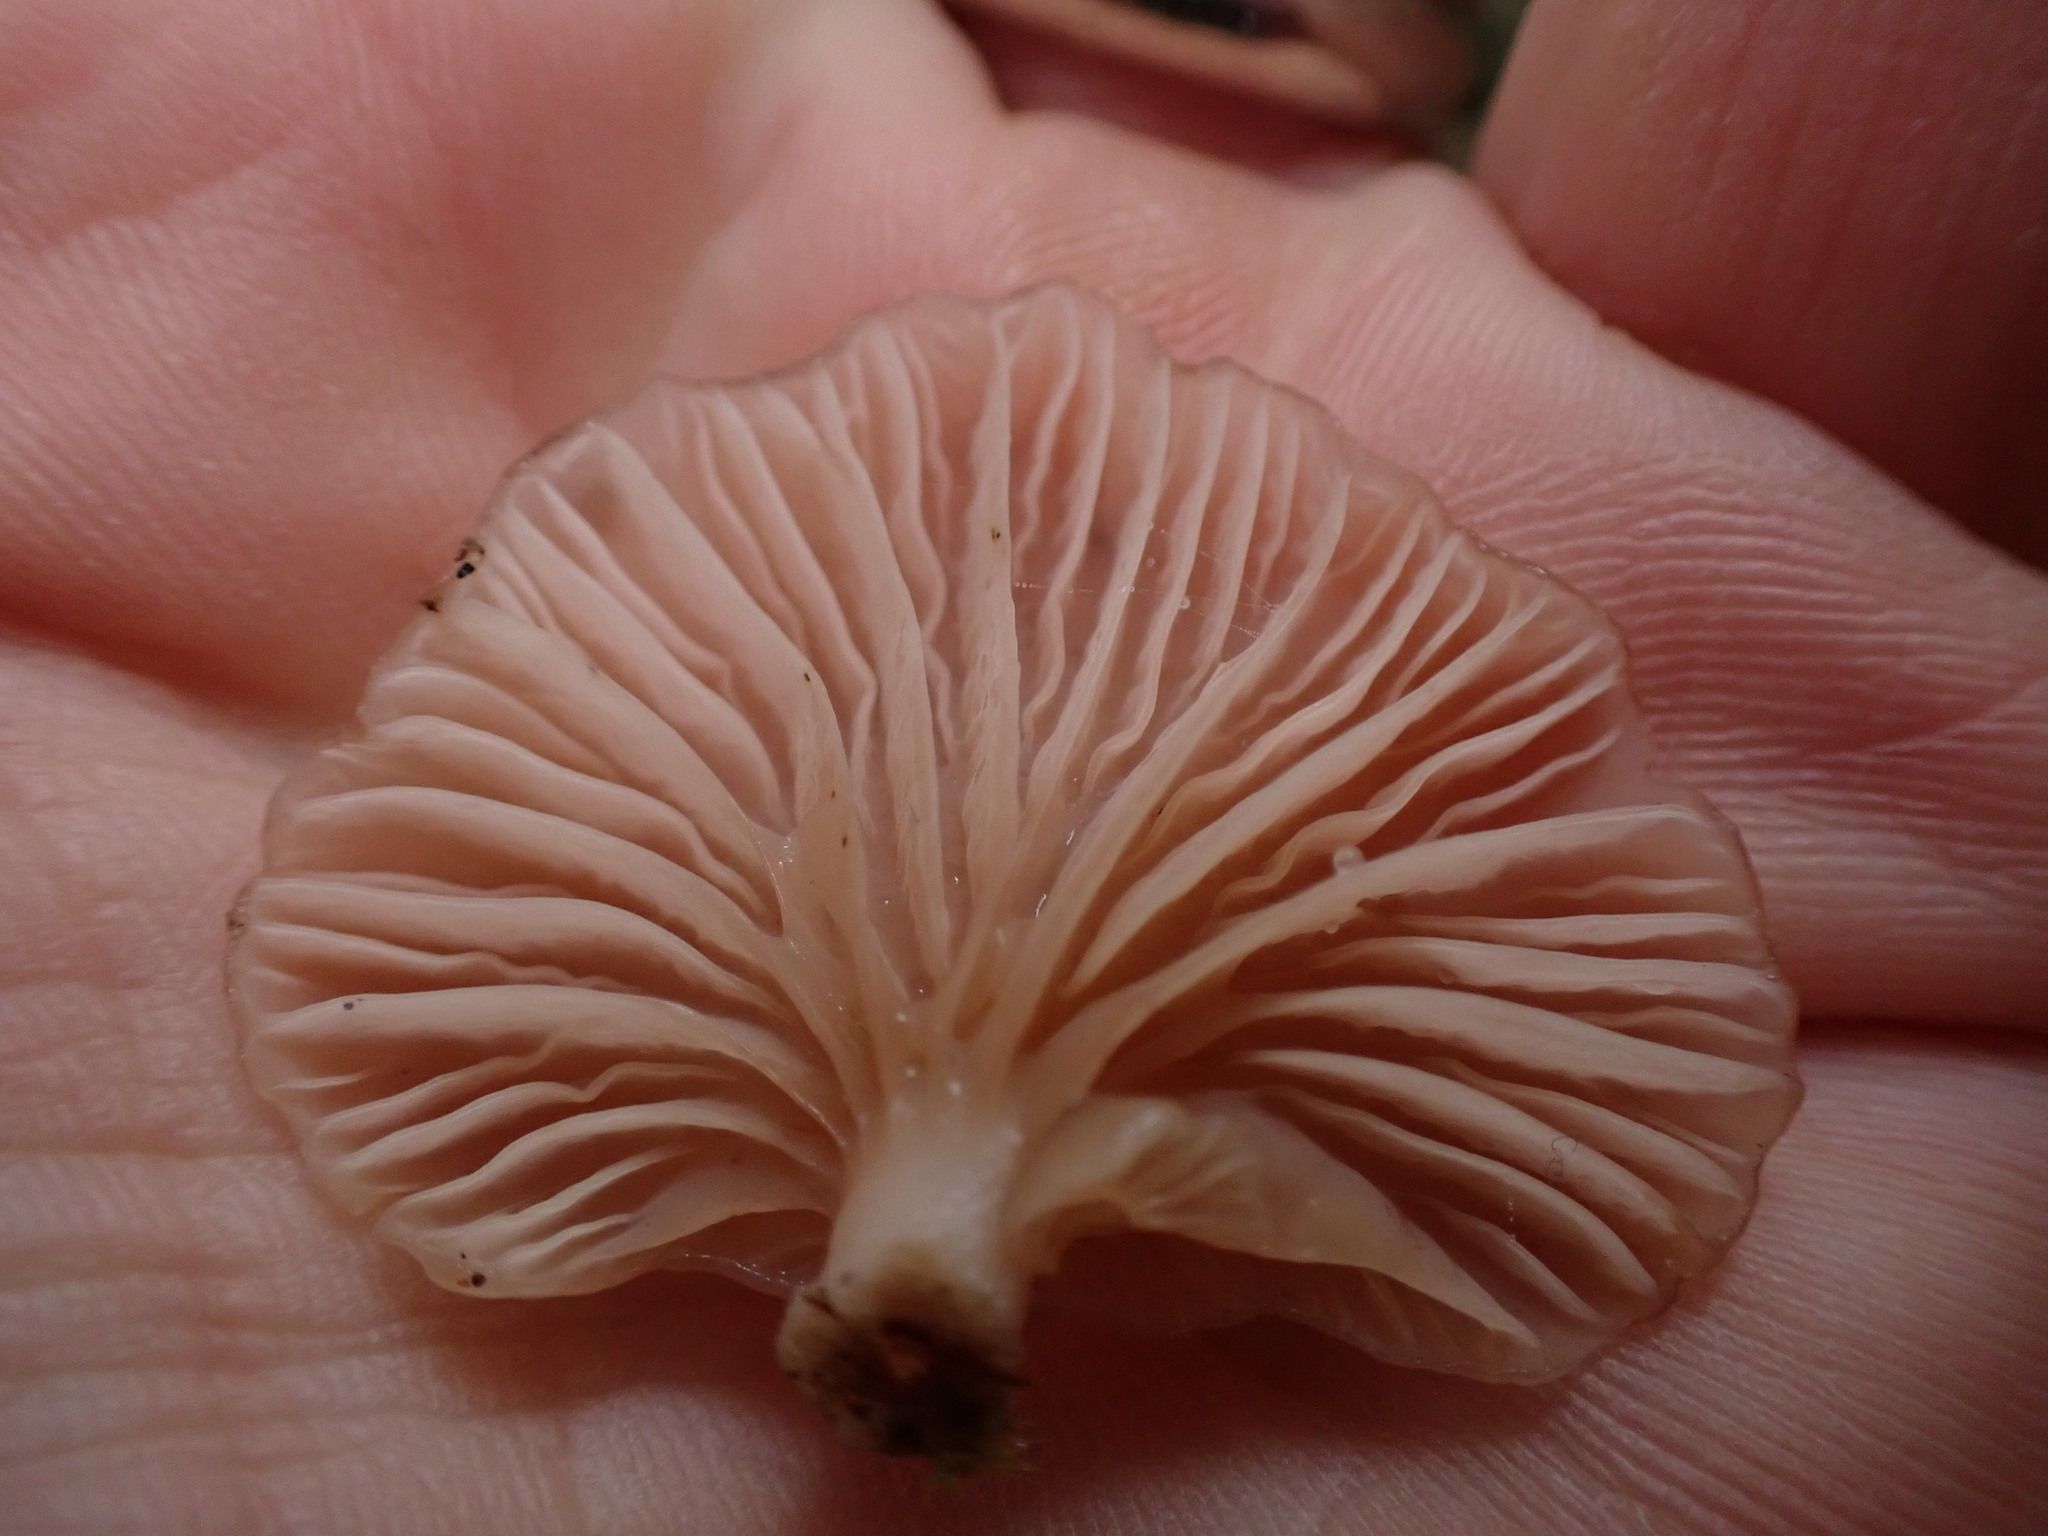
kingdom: Fungi
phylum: Basidiomycota
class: Agaricomycetes
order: Agaricales
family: Mycenaceae
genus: Panellus
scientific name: Panellus longinquus
